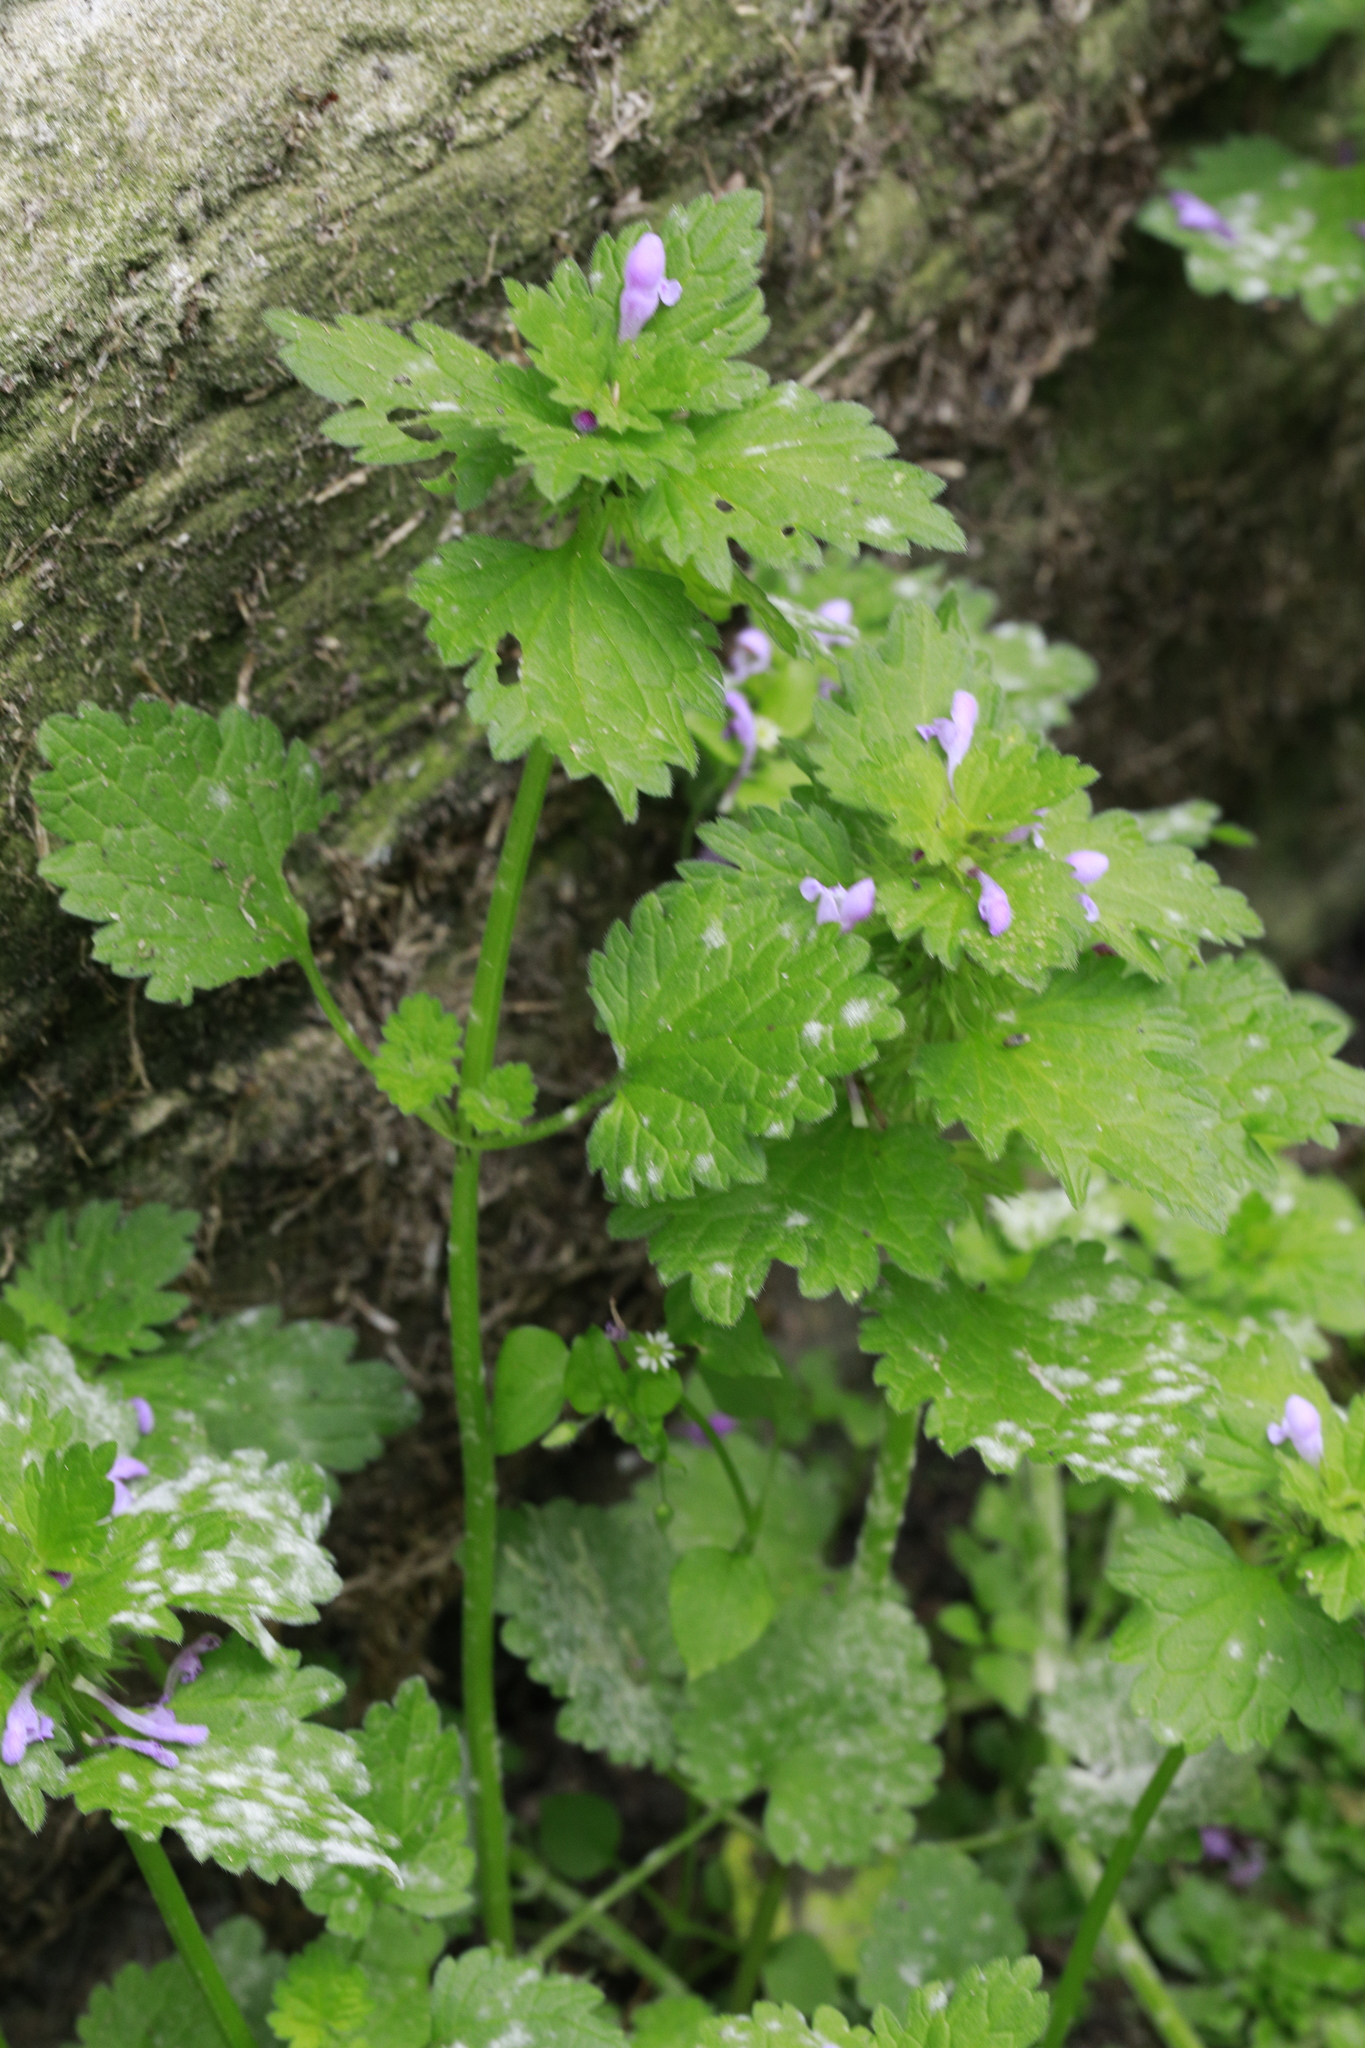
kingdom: Plantae
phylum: Tracheophyta
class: Magnoliopsida
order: Lamiales
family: Lamiaceae
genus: Lamium
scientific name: Lamium purpureum
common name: Red dead-nettle
